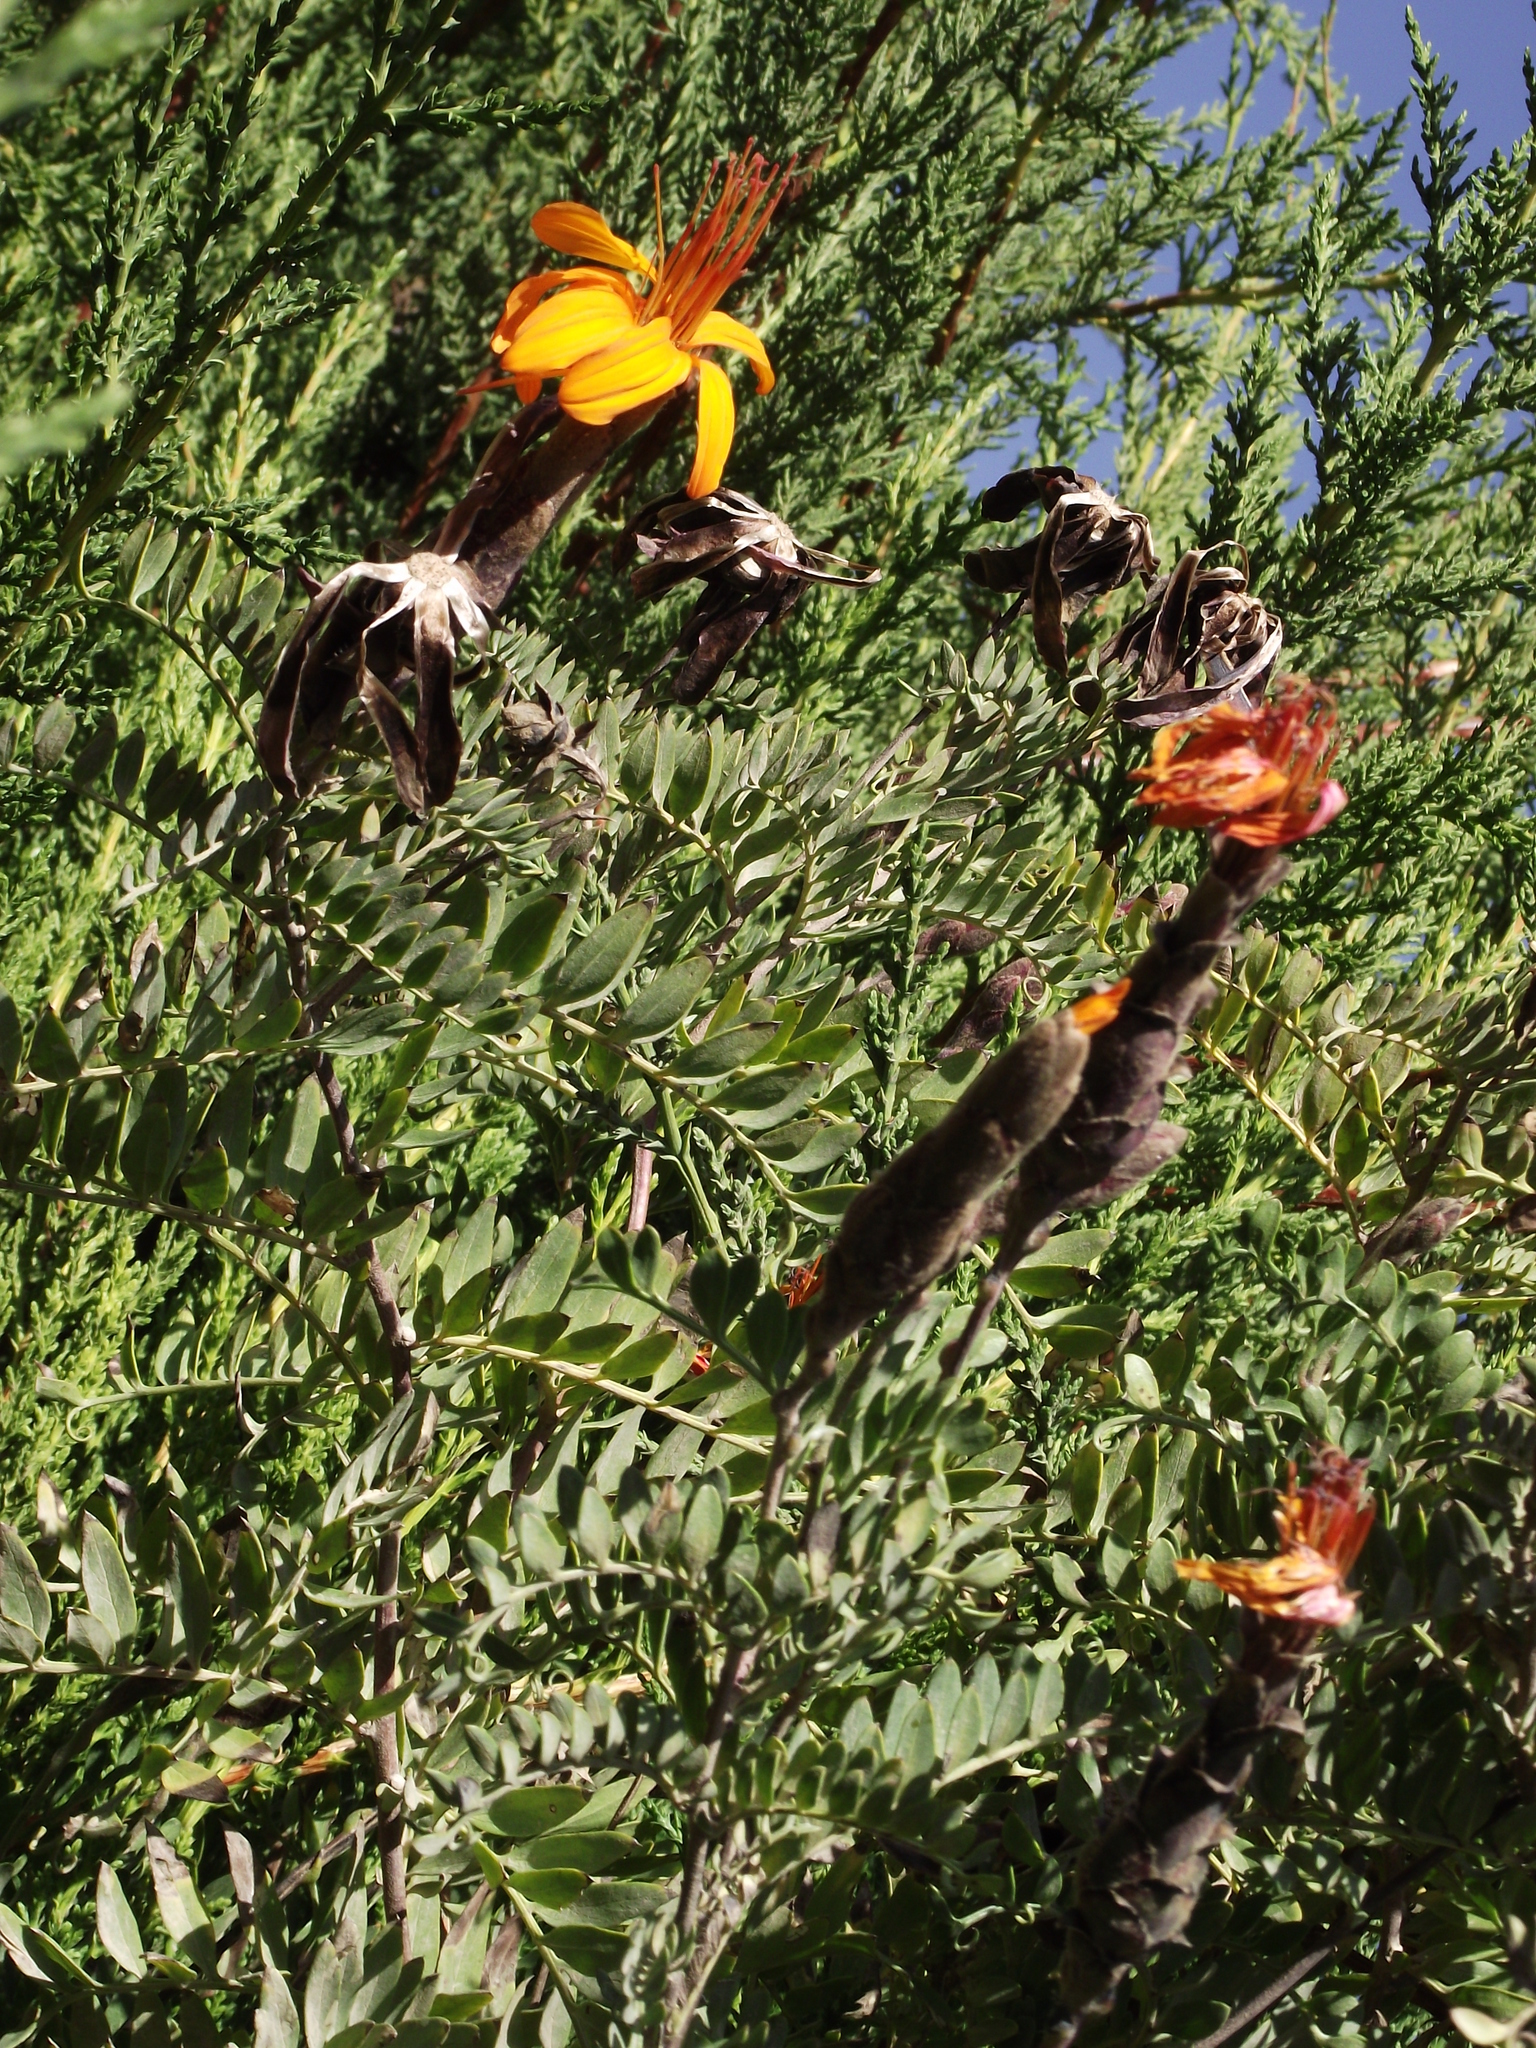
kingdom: Plantae
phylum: Tracheophyta
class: Magnoliopsida
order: Asterales
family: Asteraceae
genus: Mutisia
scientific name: Mutisia acuminata
